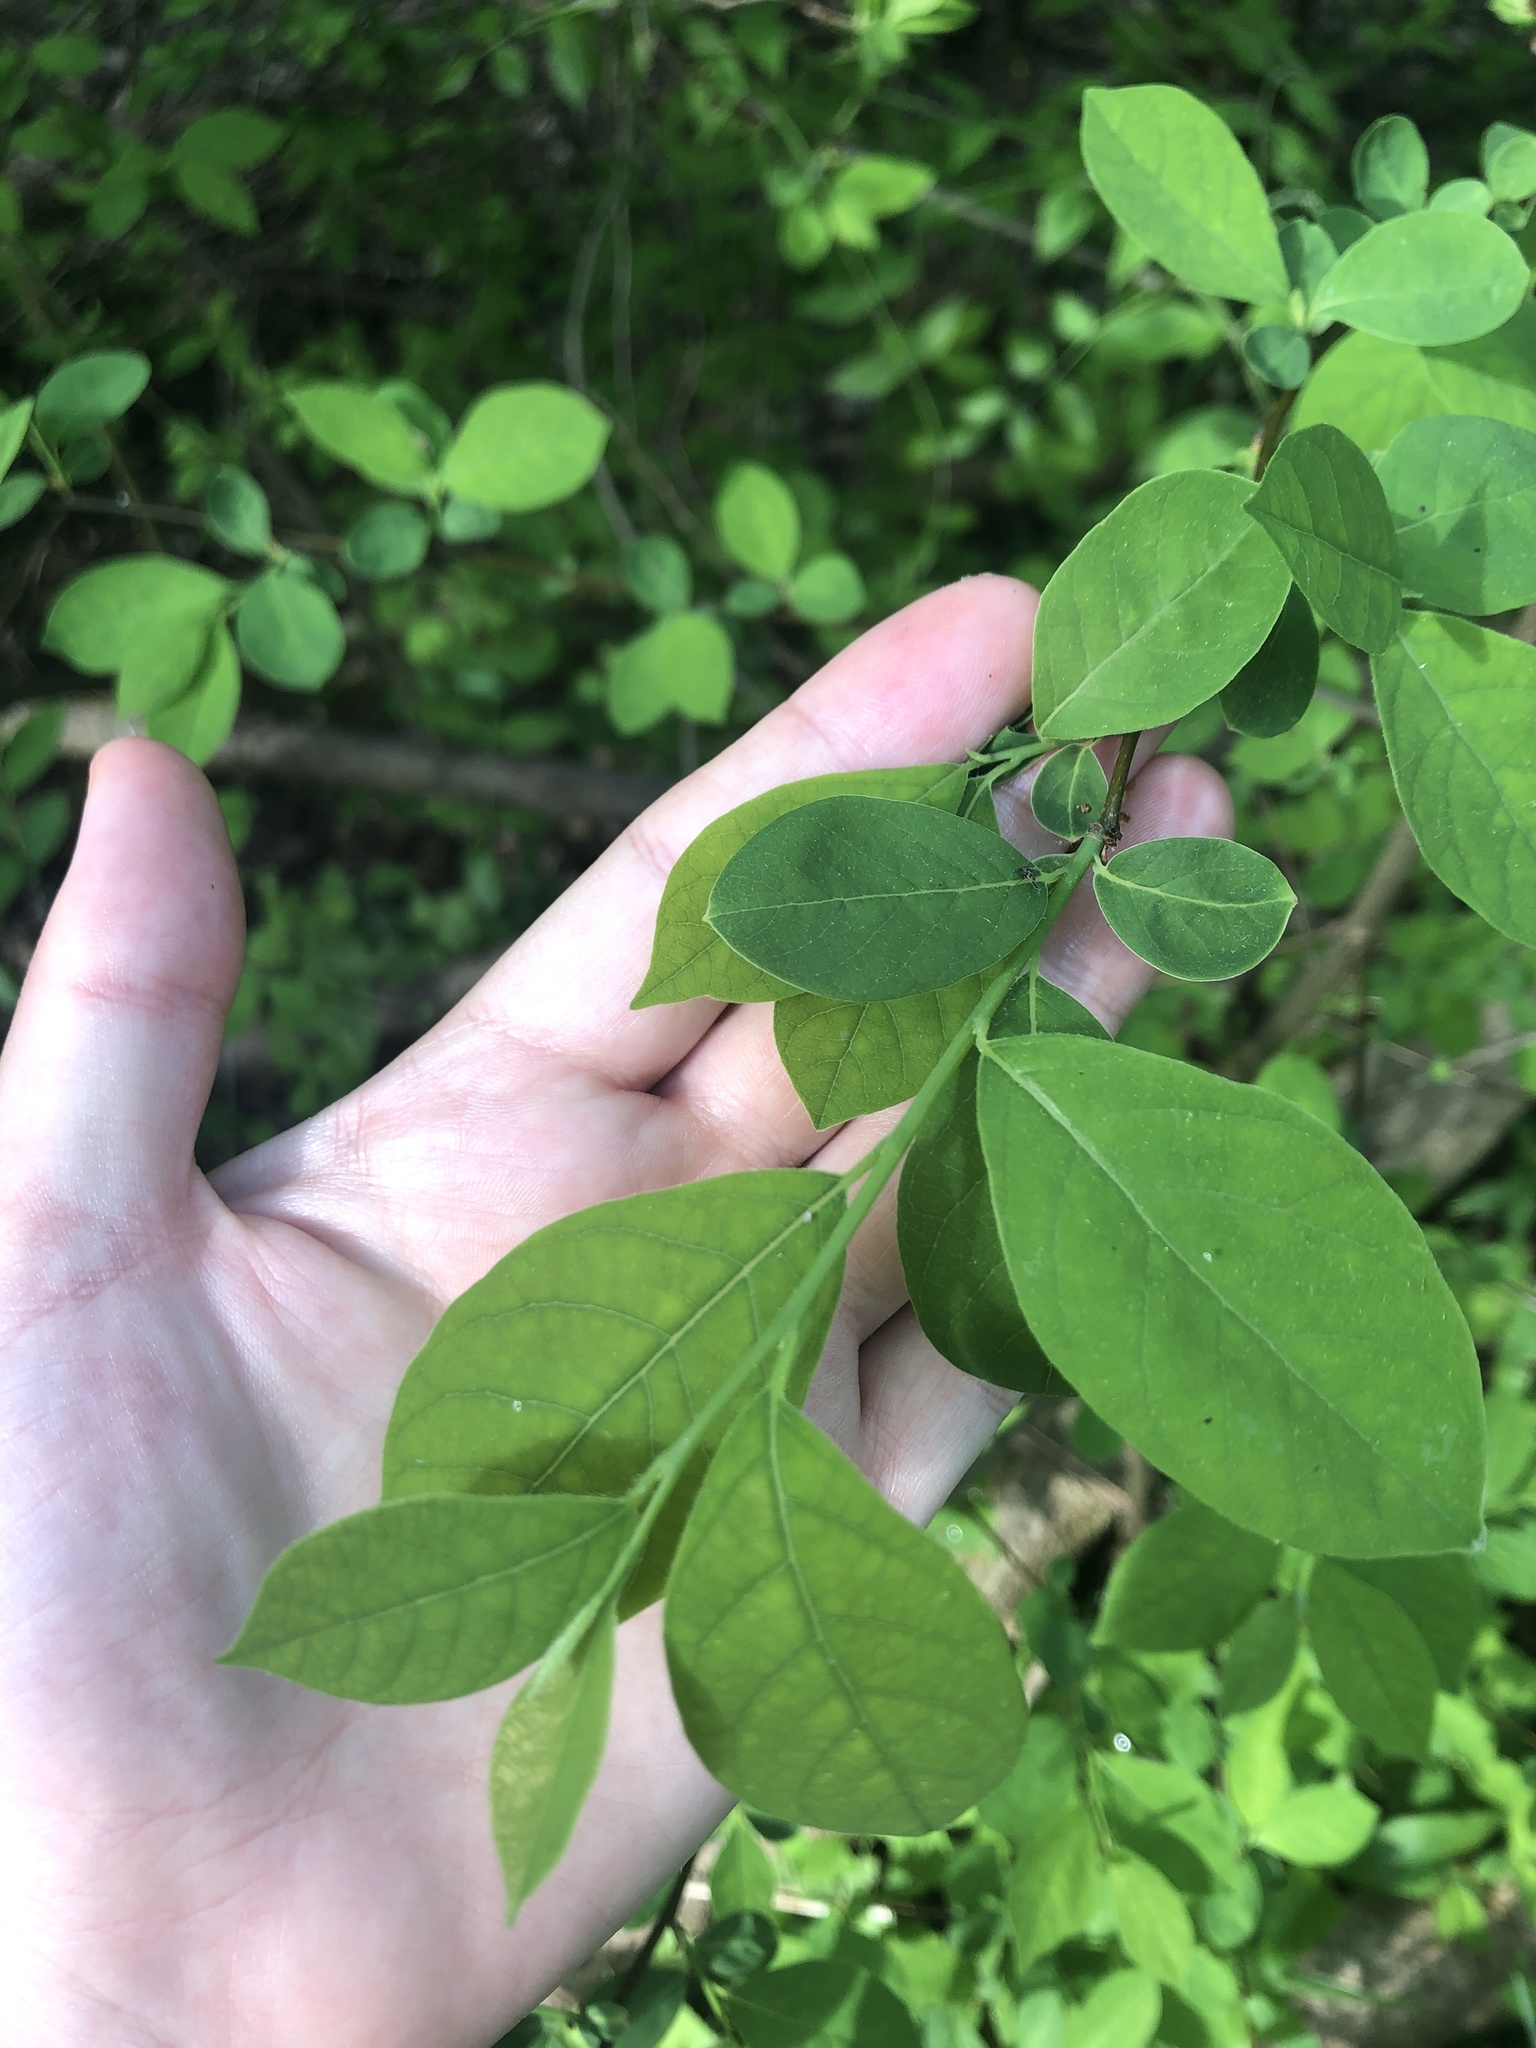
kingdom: Plantae
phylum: Tracheophyta
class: Magnoliopsida
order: Laurales
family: Lauraceae
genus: Lindera
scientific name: Lindera benzoin
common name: Spicebush
